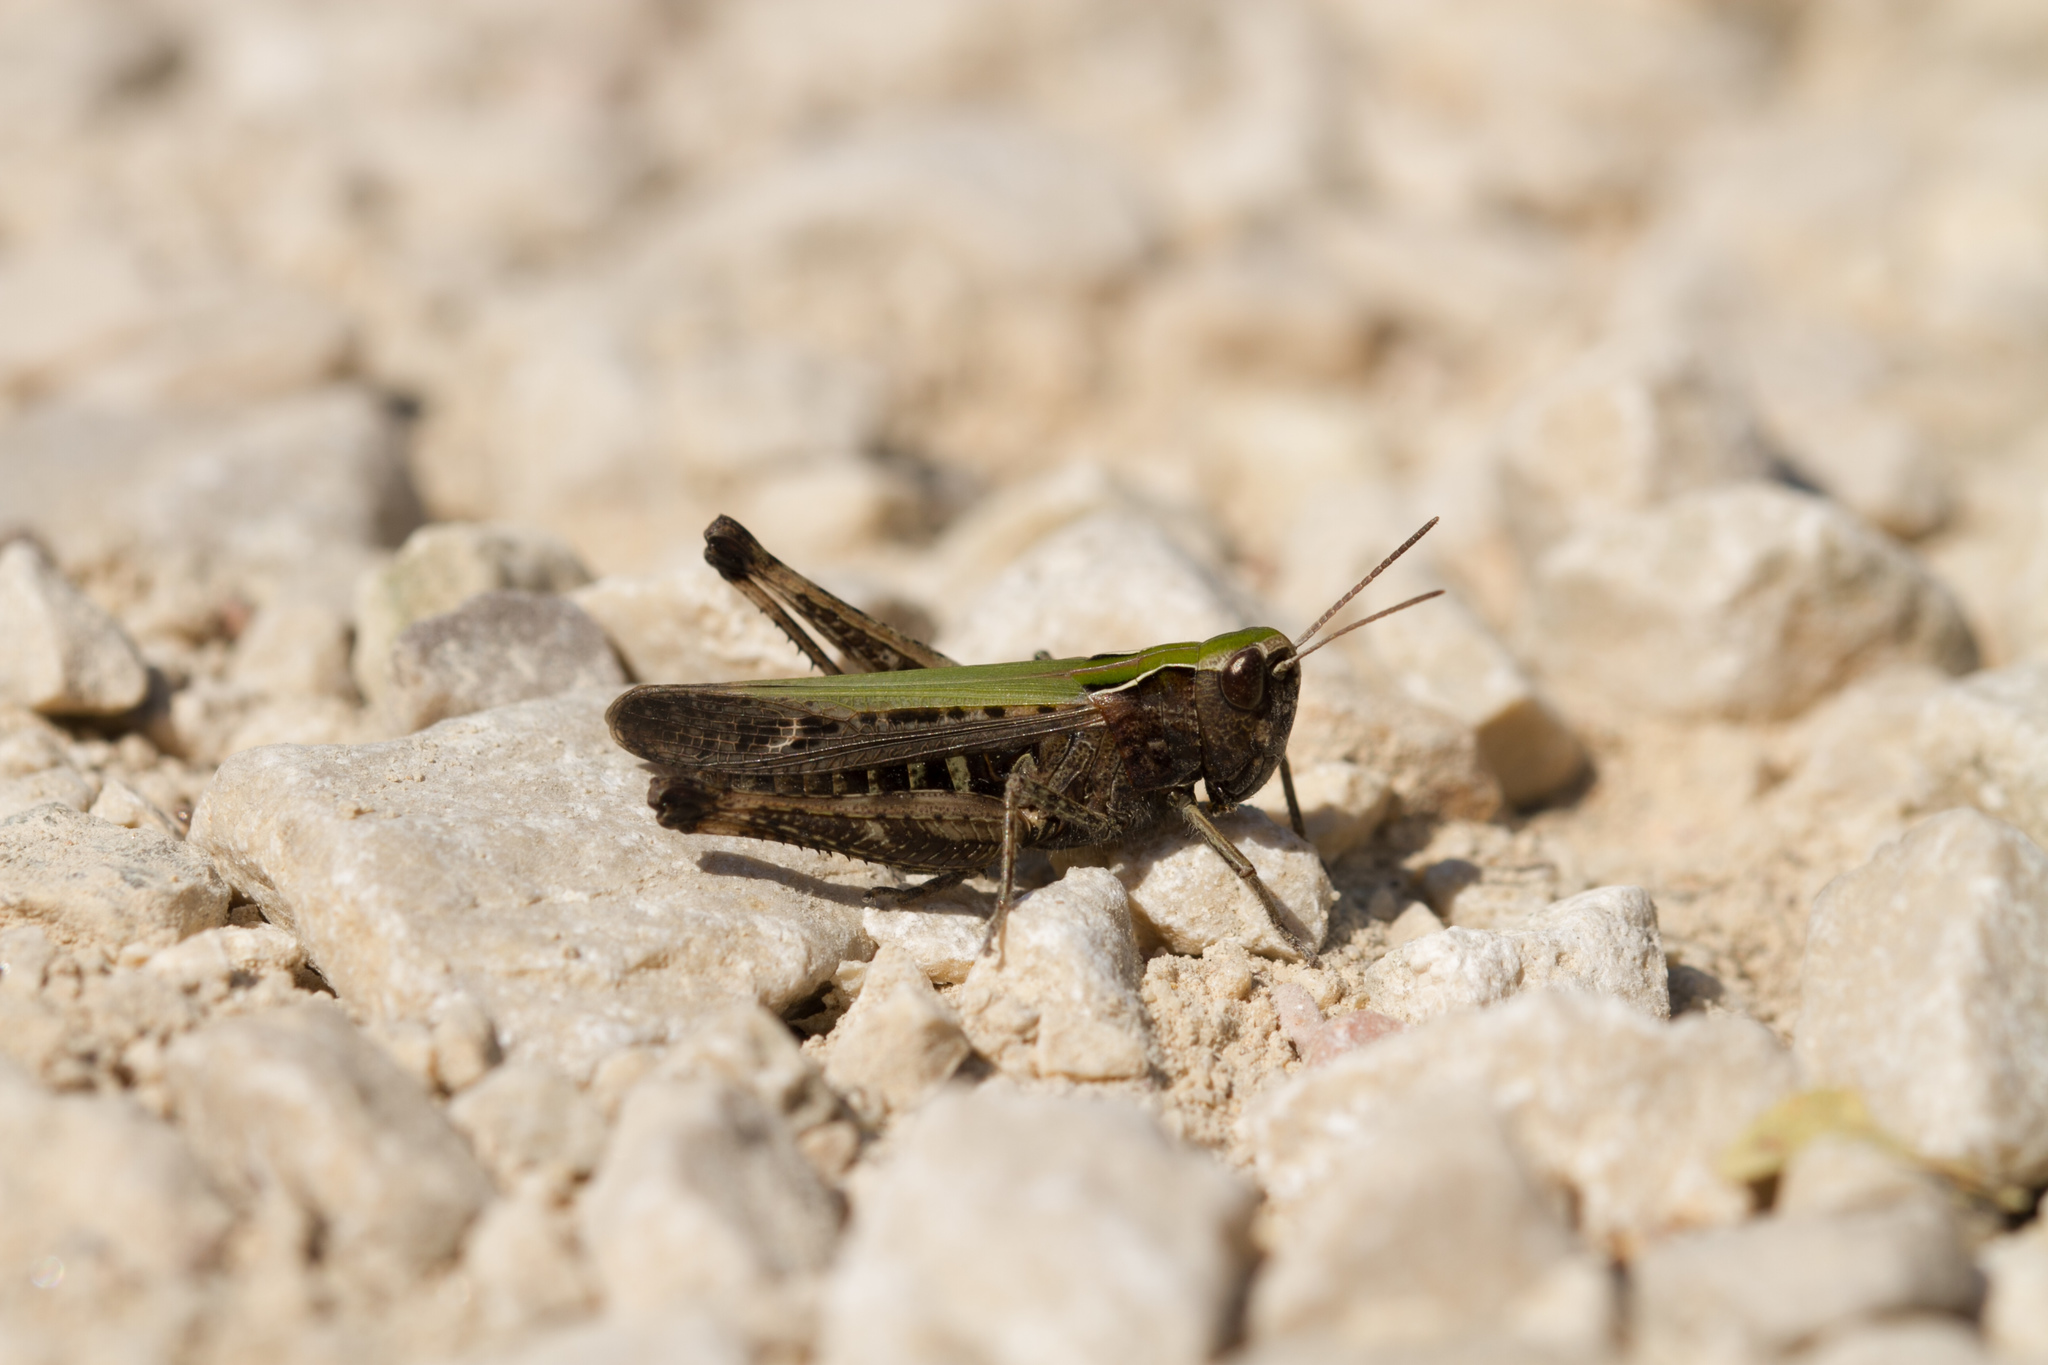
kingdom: Animalia
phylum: Arthropoda
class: Insecta
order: Orthoptera
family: Acrididae
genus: Omocestus
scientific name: Omocestus rufipes
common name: Woodland grasshopper
